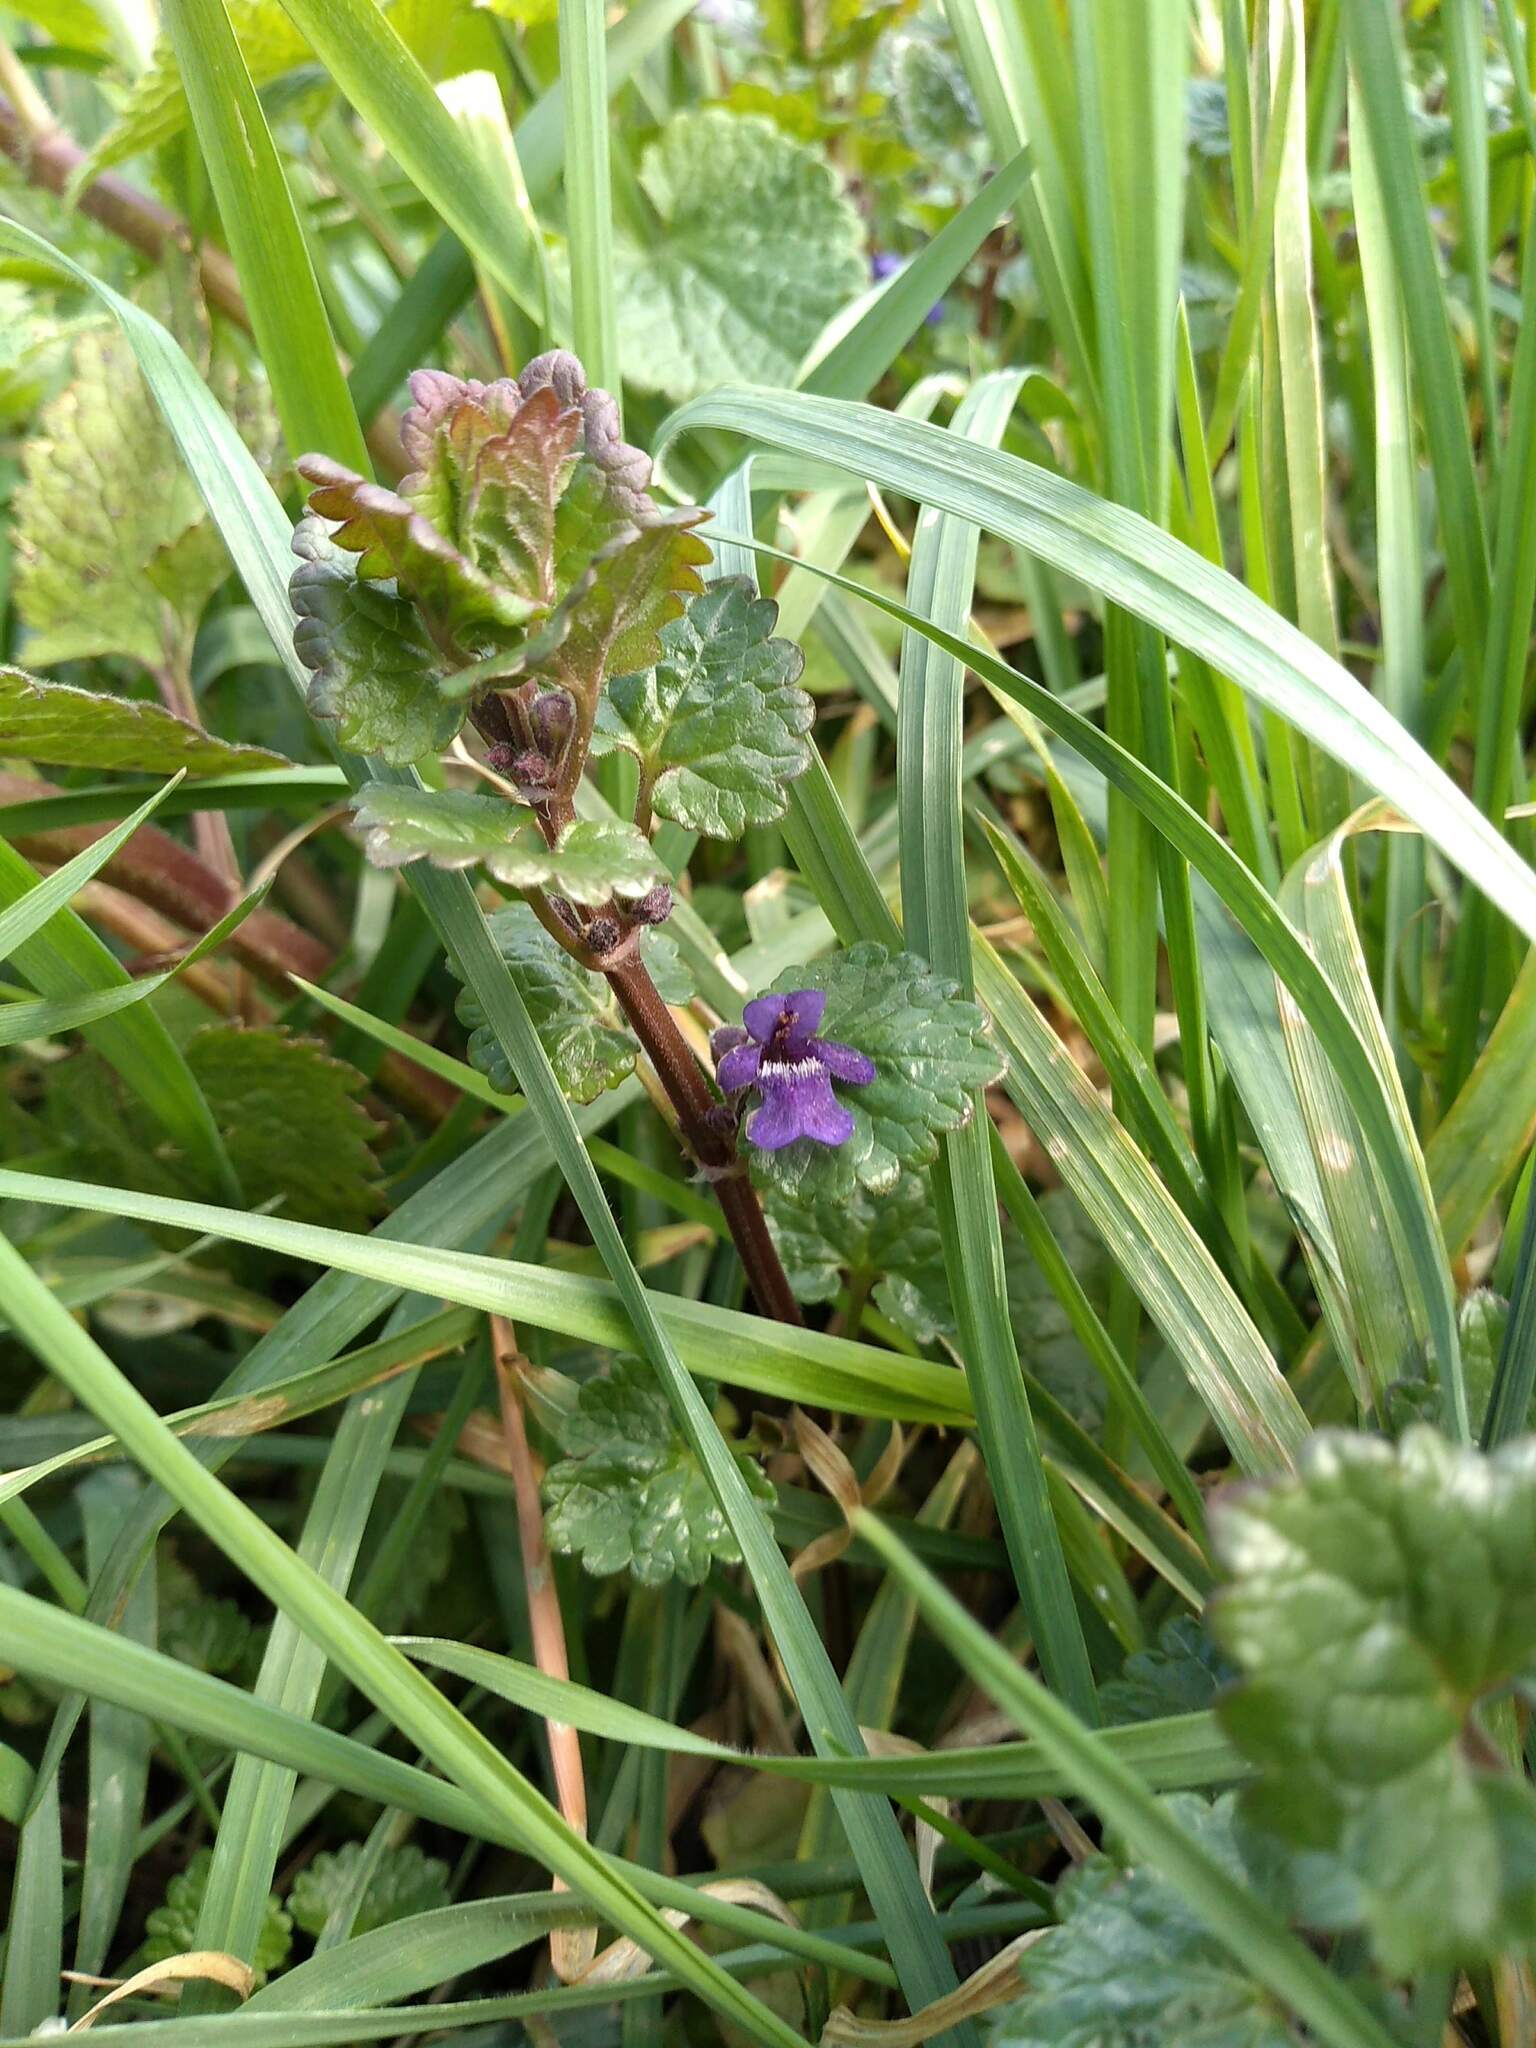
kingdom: Plantae
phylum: Tracheophyta
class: Magnoliopsida
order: Lamiales
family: Lamiaceae
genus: Glechoma
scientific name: Glechoma hederacea
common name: Ground ivy
